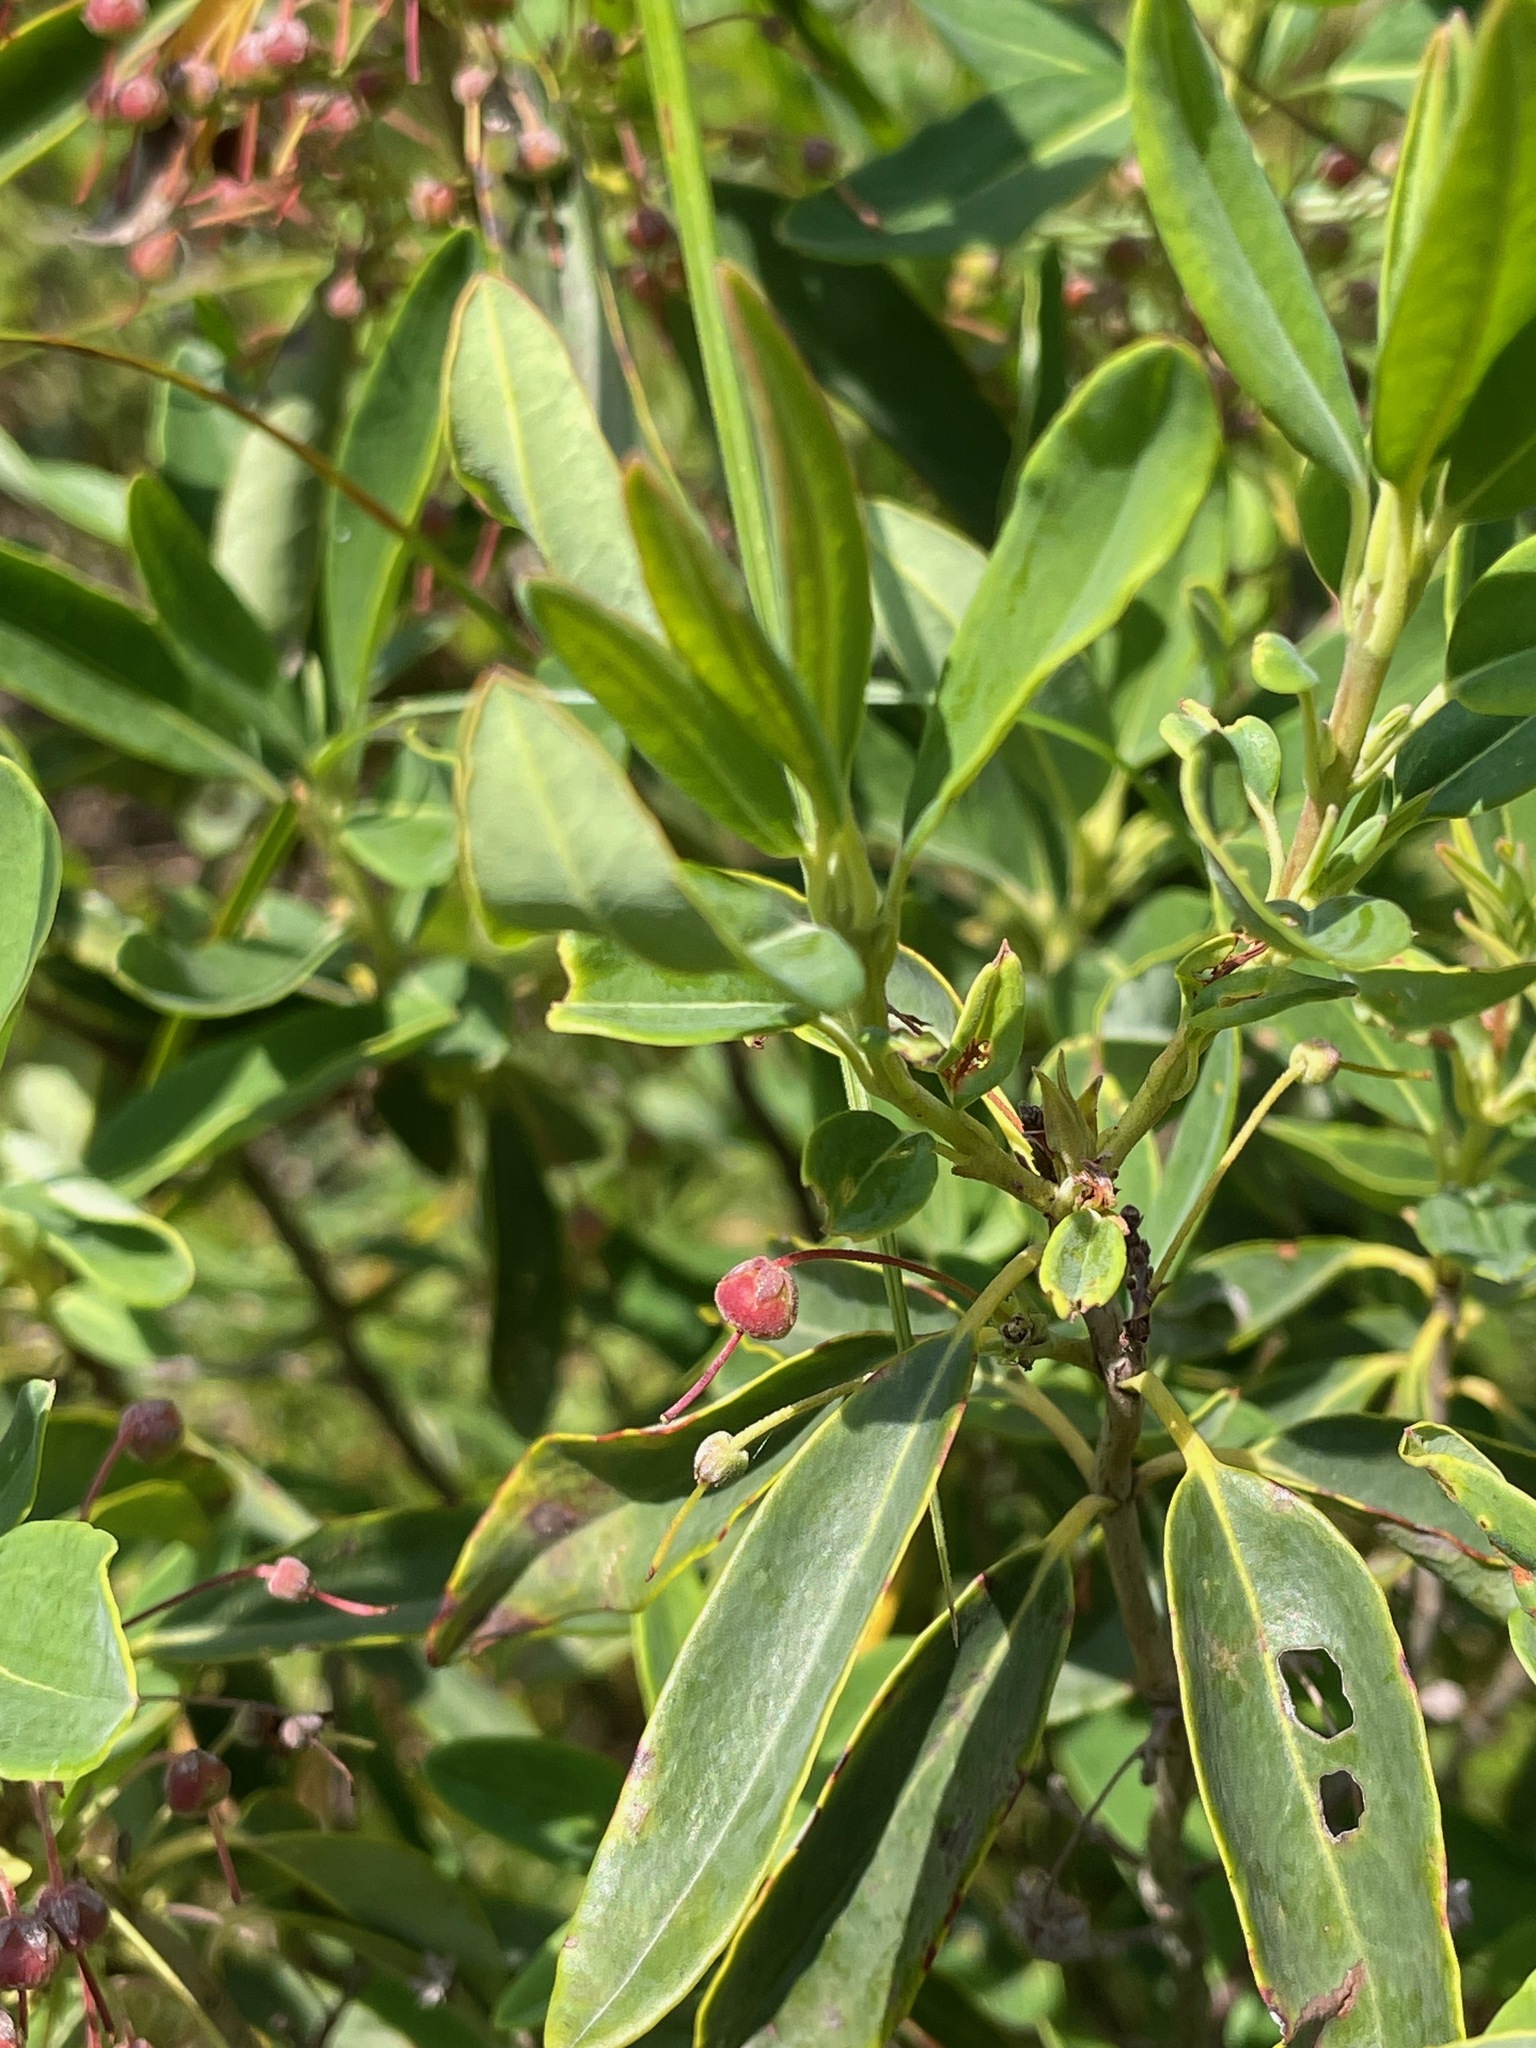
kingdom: Plantae
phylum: Tracheophyta
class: Magnoliopsida
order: Ericales
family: Ericaceae
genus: Kalmia
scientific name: Kalmia angustifolia
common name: Sheep-laurel
